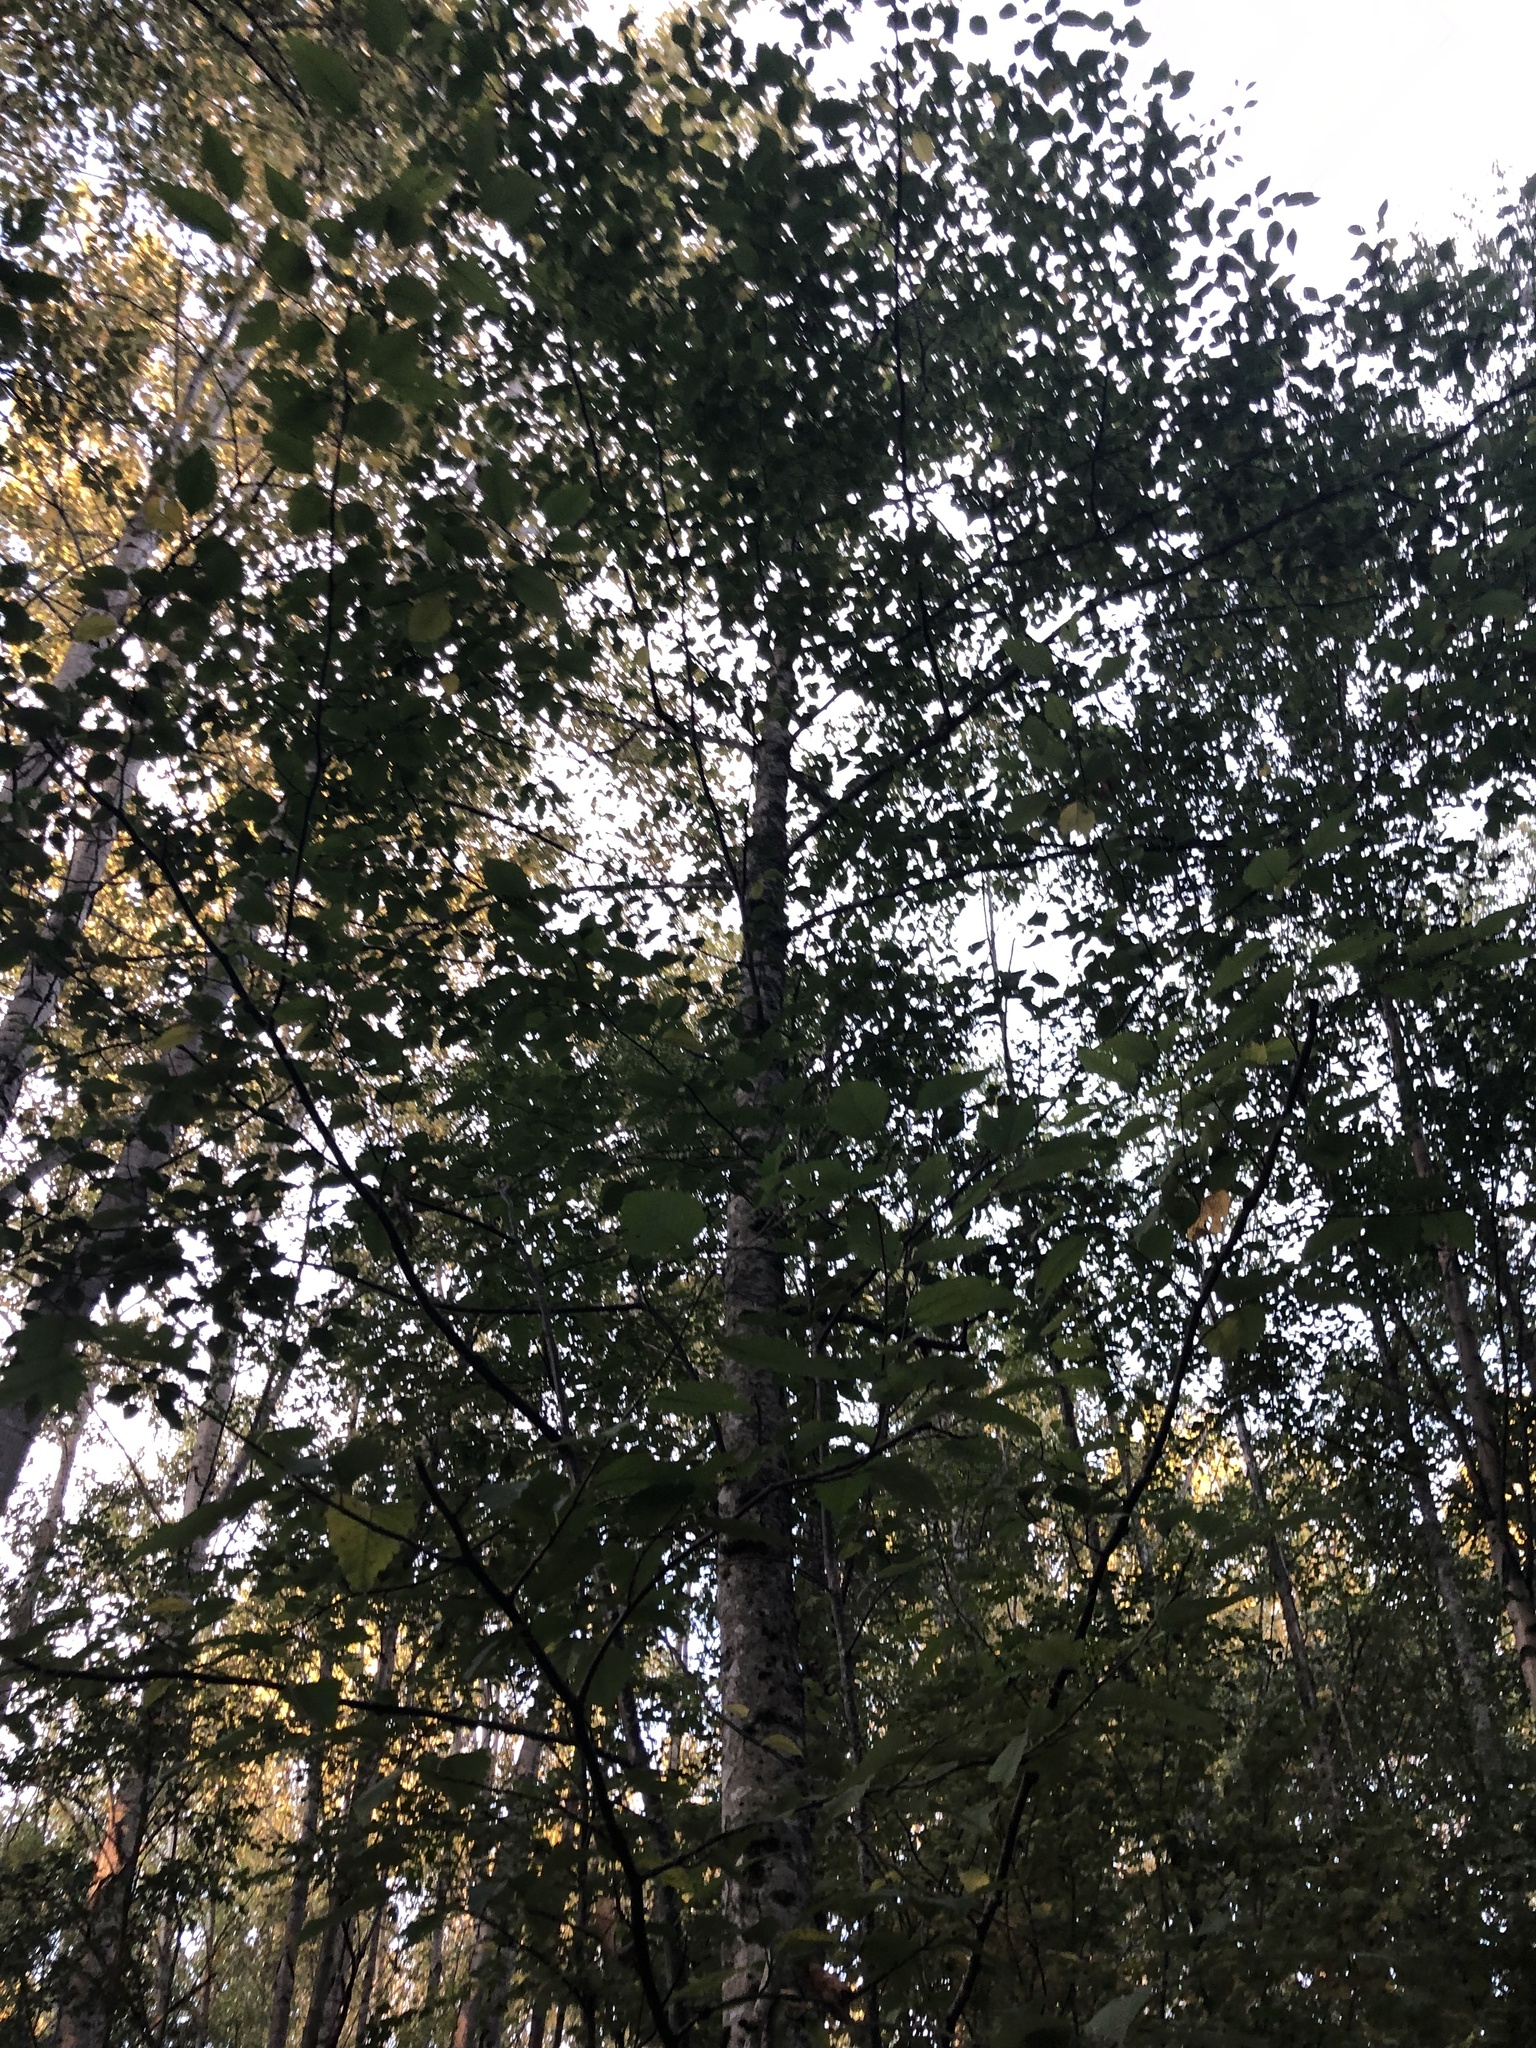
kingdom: Plantae
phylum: Tracheophyta
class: Magnoliopsida
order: Fagales
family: Betulaceae
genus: Alnus
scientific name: Alnus rubra
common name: Red alder
